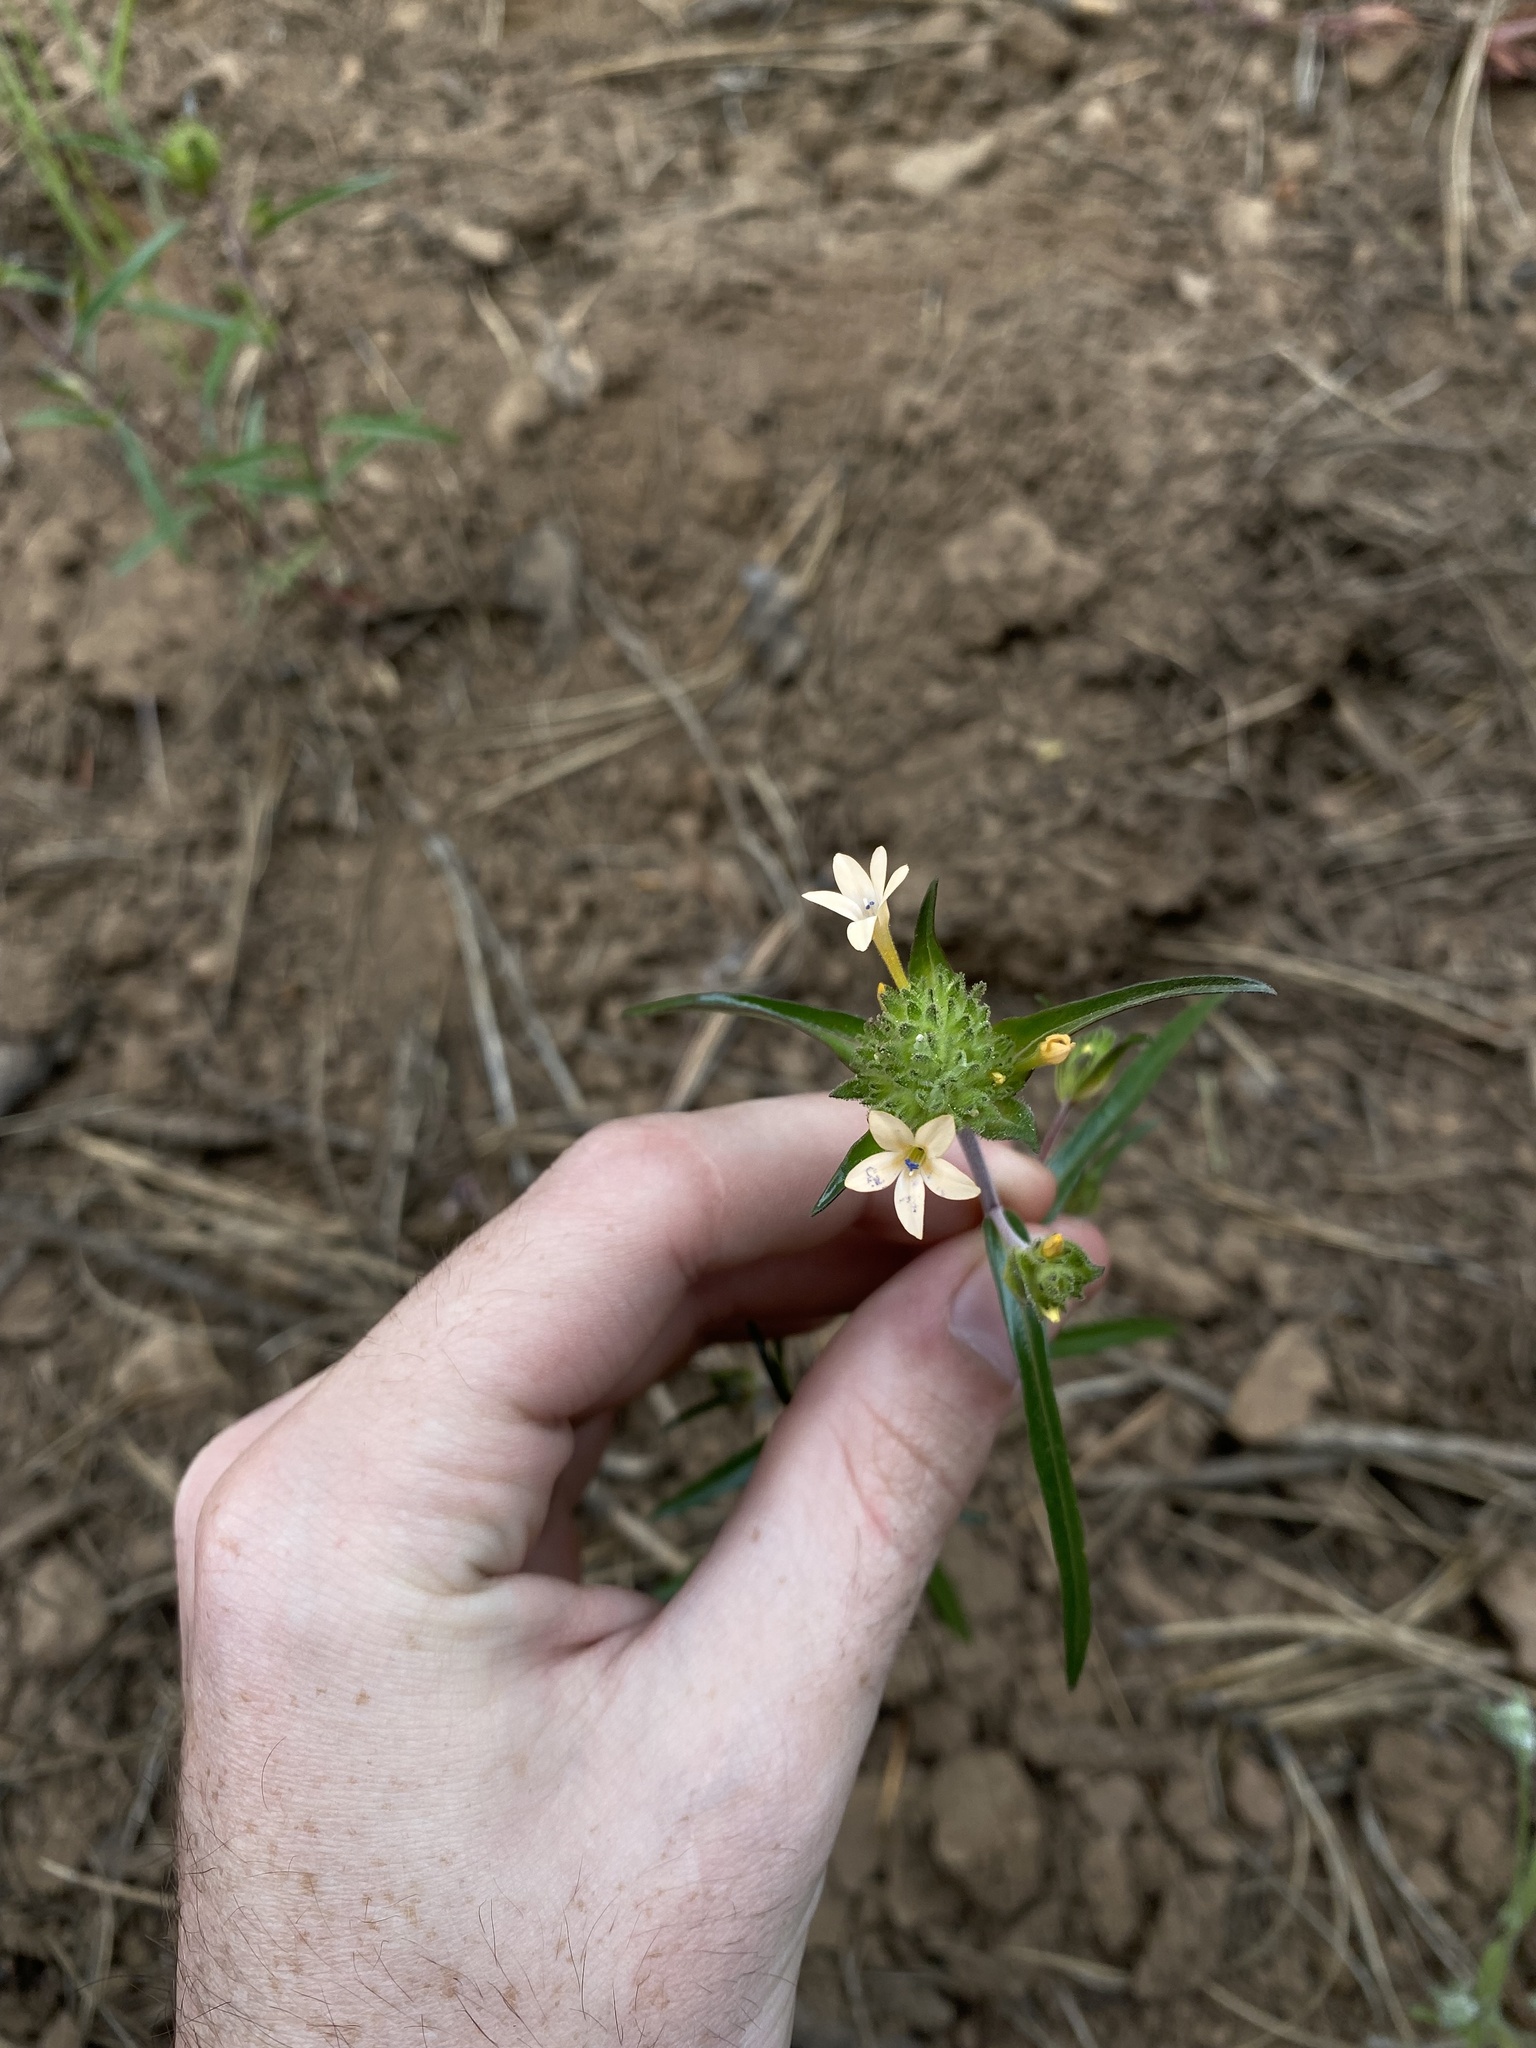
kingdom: Plantae
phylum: Tracheophyta
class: Magnoliopsida
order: Ericales
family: Polemoniaceae
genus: Collomia
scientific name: Collomia grandiflora
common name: California strawflower
